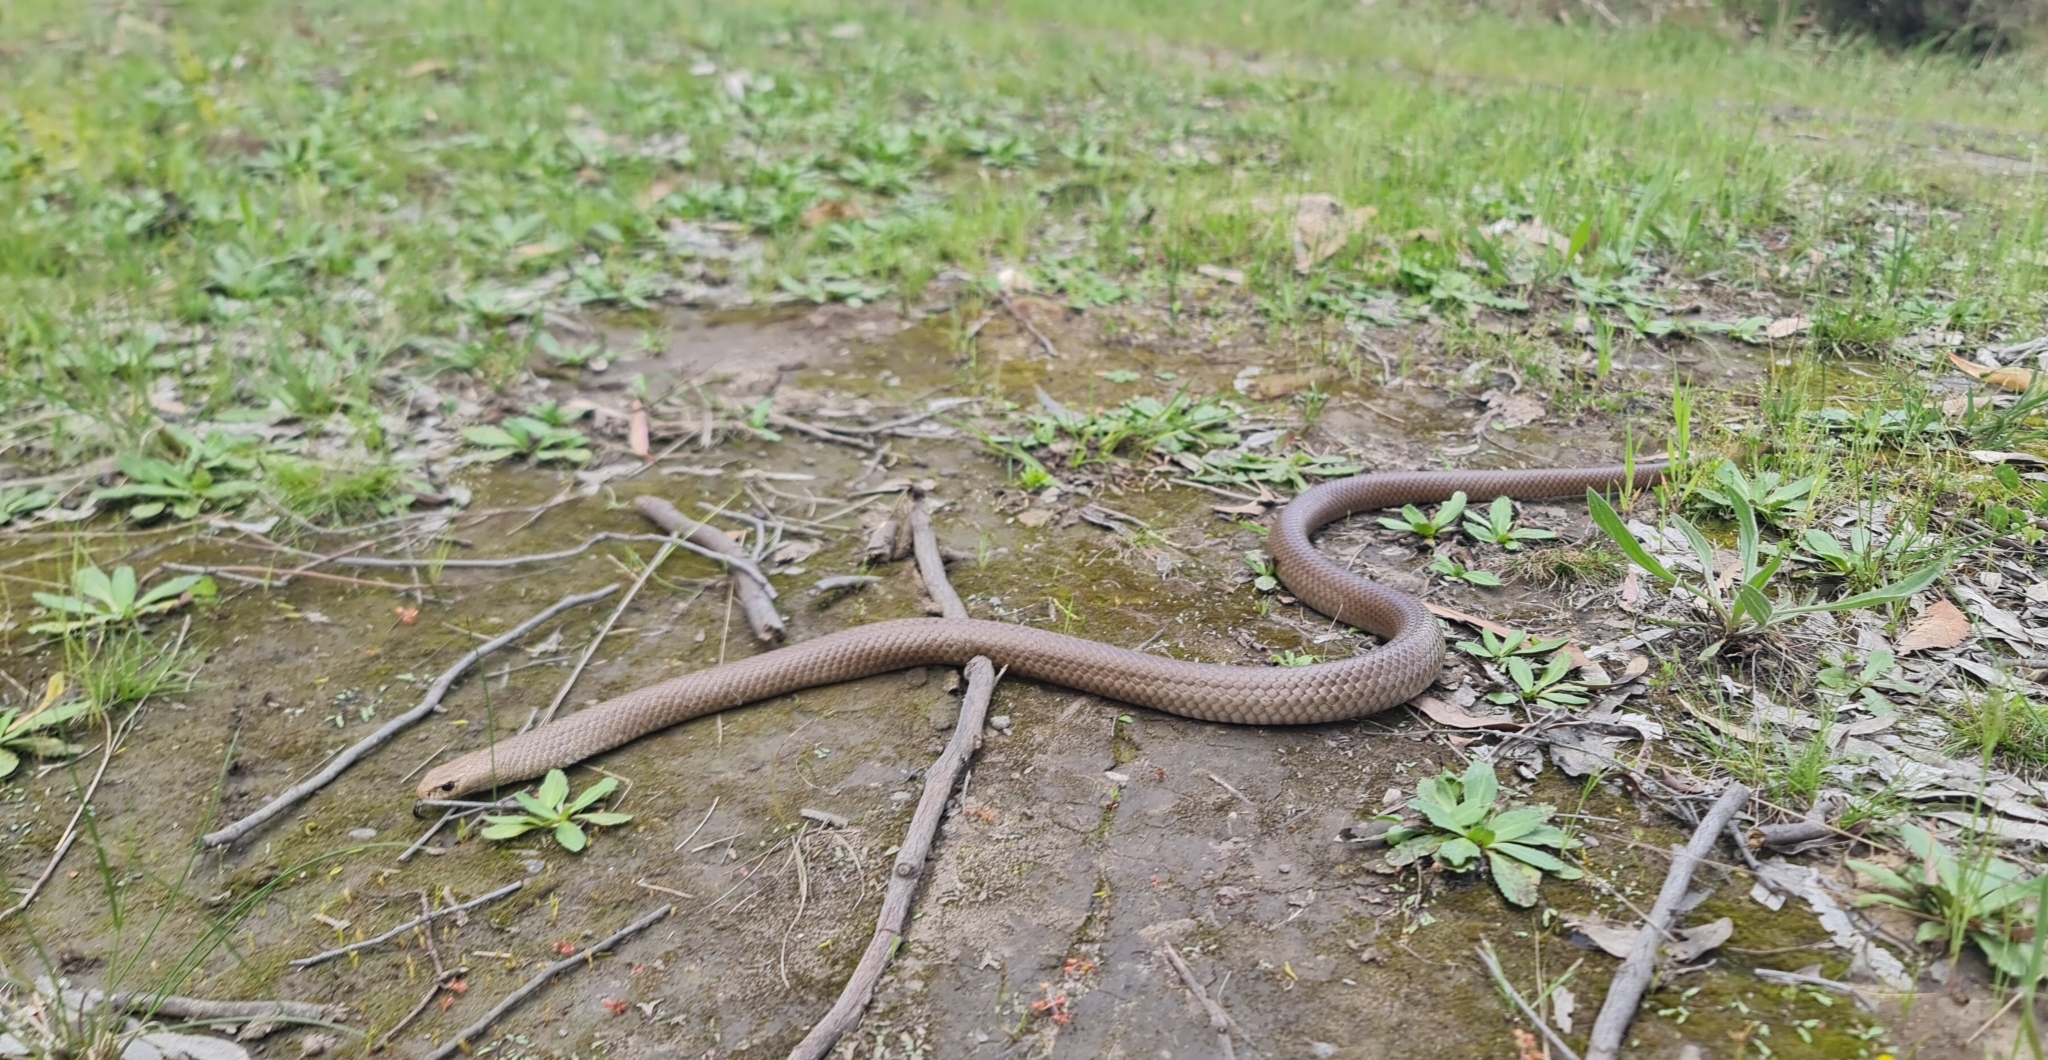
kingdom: Animalia
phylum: Chordata
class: Squamata
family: Elapidae
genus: Pseudonaja
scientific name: Pseudonaja textilis
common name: Eastern brown snake
